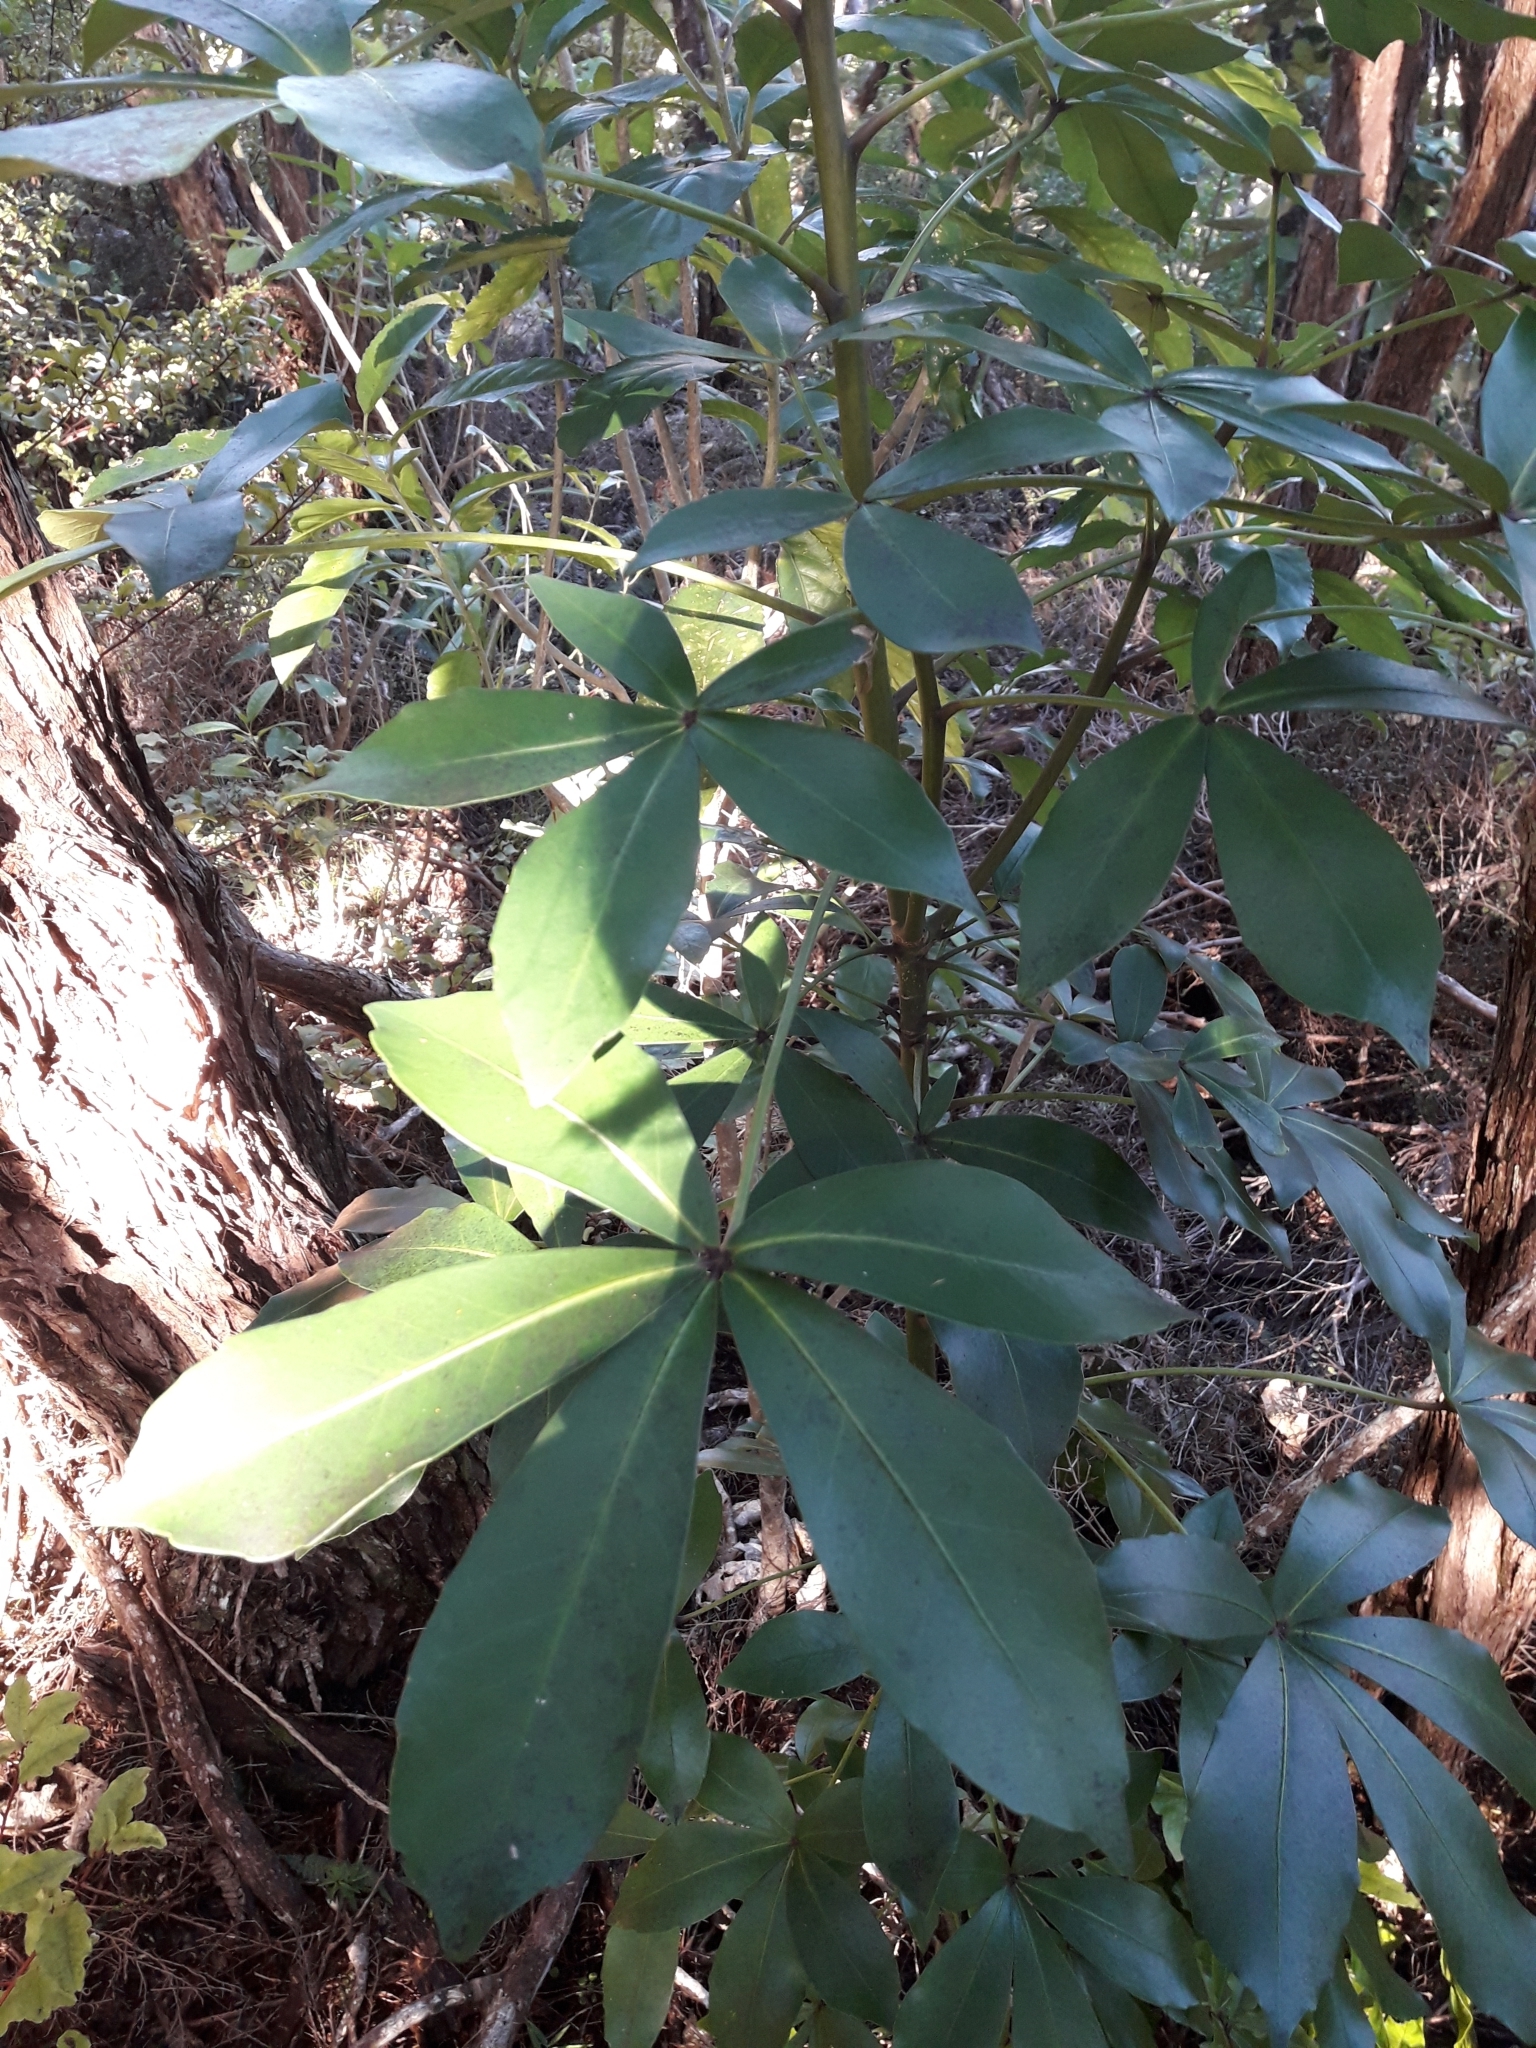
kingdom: Plantae
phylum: Tracheophyta
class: Magnoliopsida
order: Apiales
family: Araliaceae
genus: Pseudopanax
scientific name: Pseudopanax lessonii
